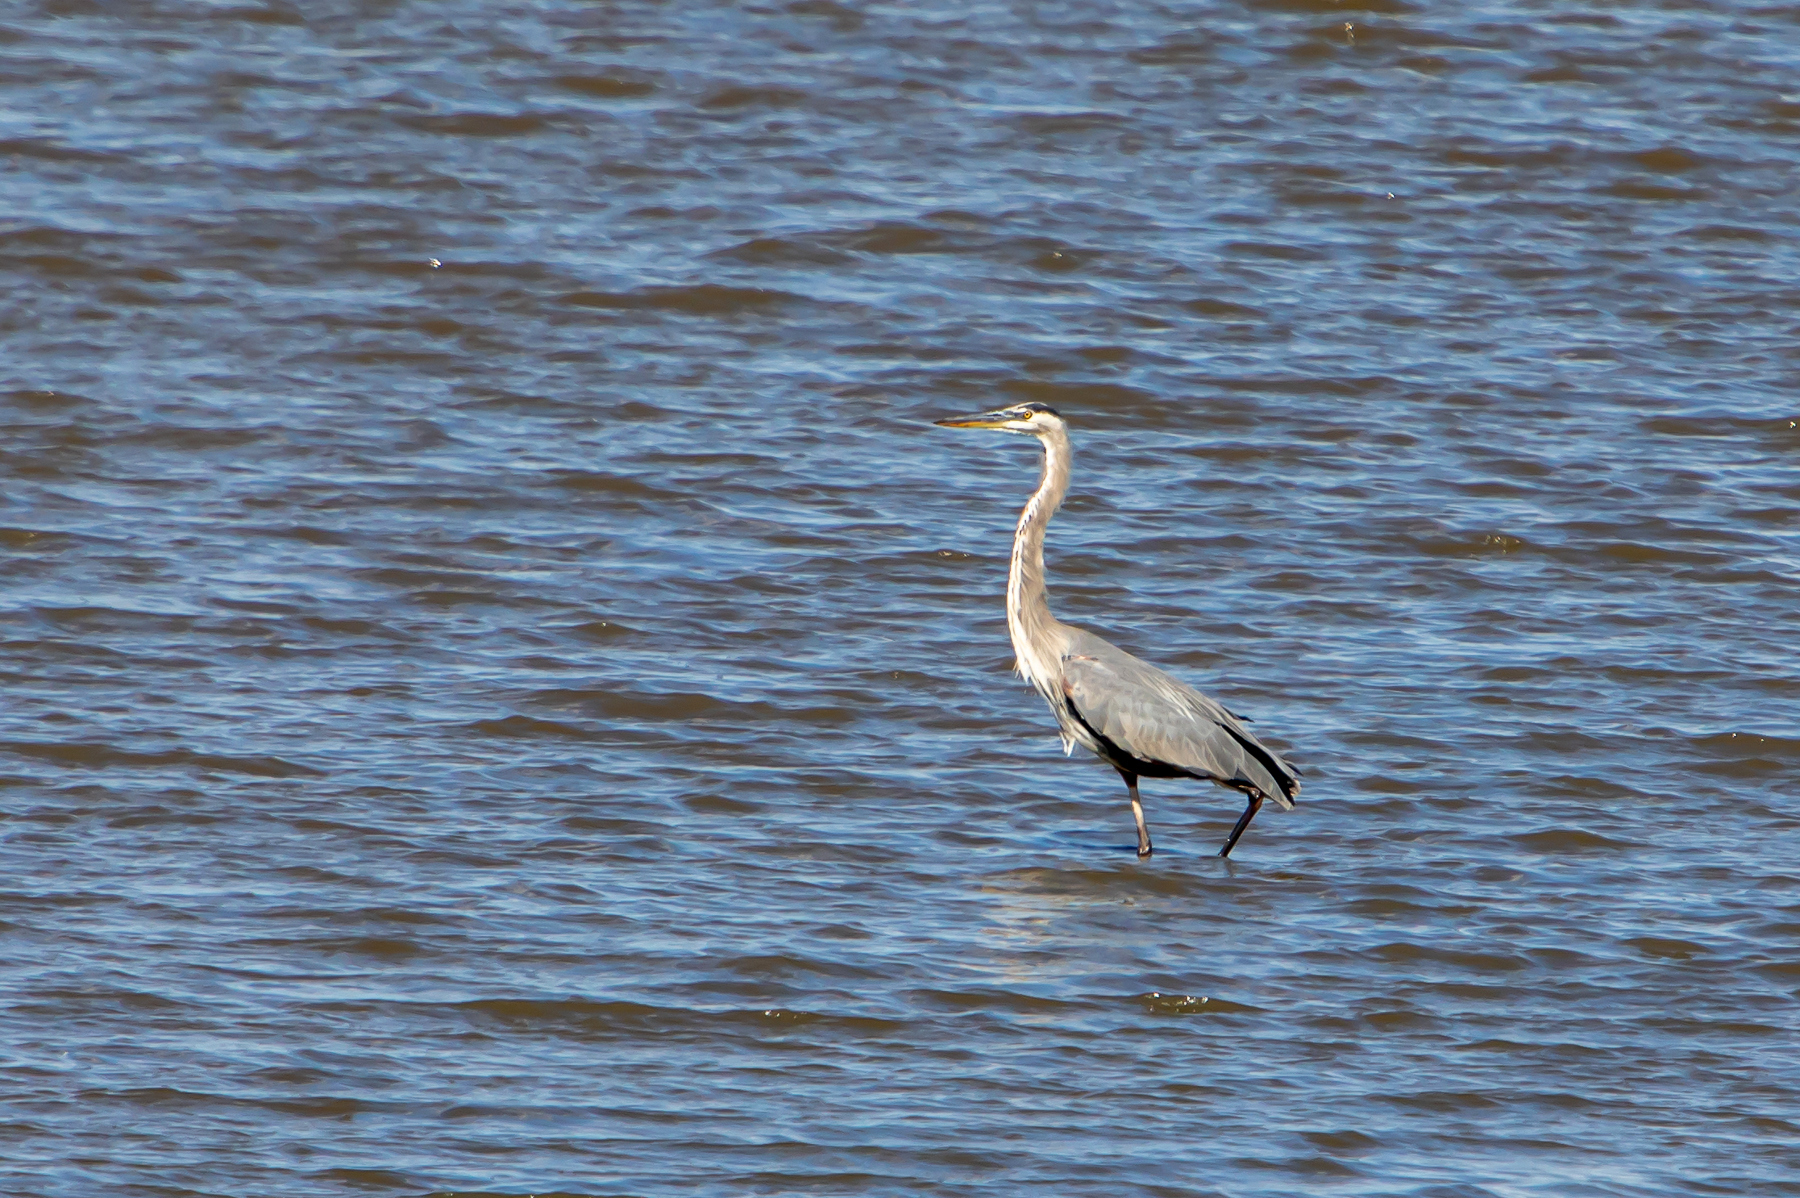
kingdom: Animalia
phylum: Chordata
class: Aves
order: Pelecaniformes
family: Ardeidae
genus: Ardea
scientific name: Ardea herodias
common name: Great blue heron
